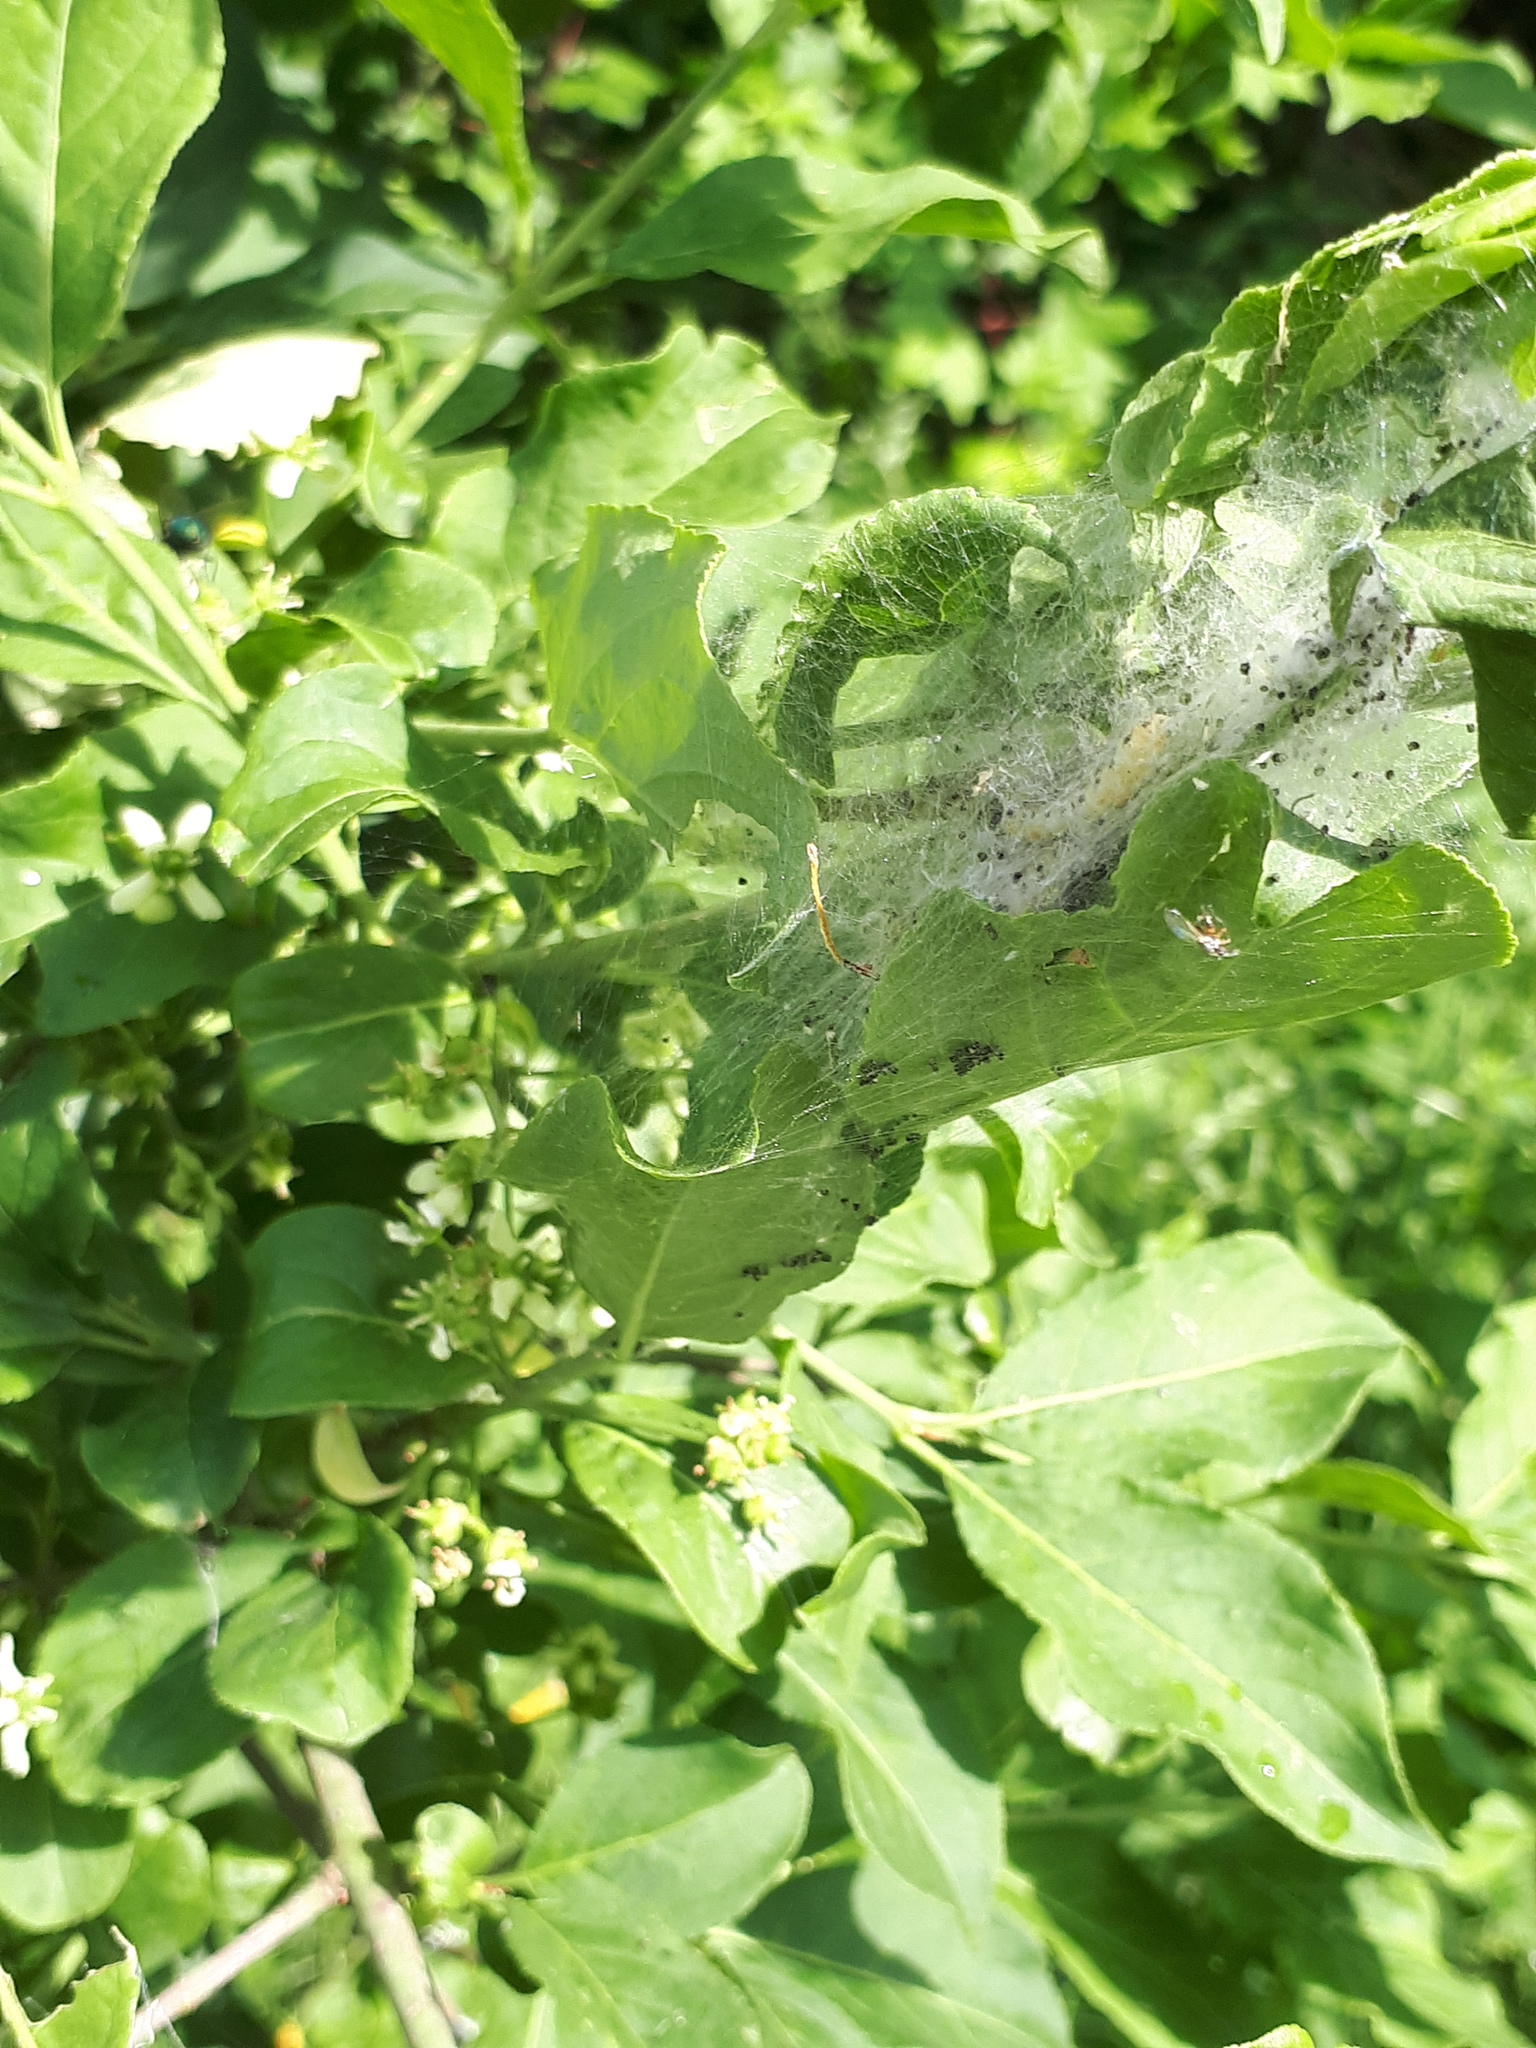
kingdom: Animalia
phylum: Arthropoda
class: Insecta
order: Lepidoptera
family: Yponomeutidae
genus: Yponomeuta
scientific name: Yponomeuta cagnagellus
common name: Spindle ermine
